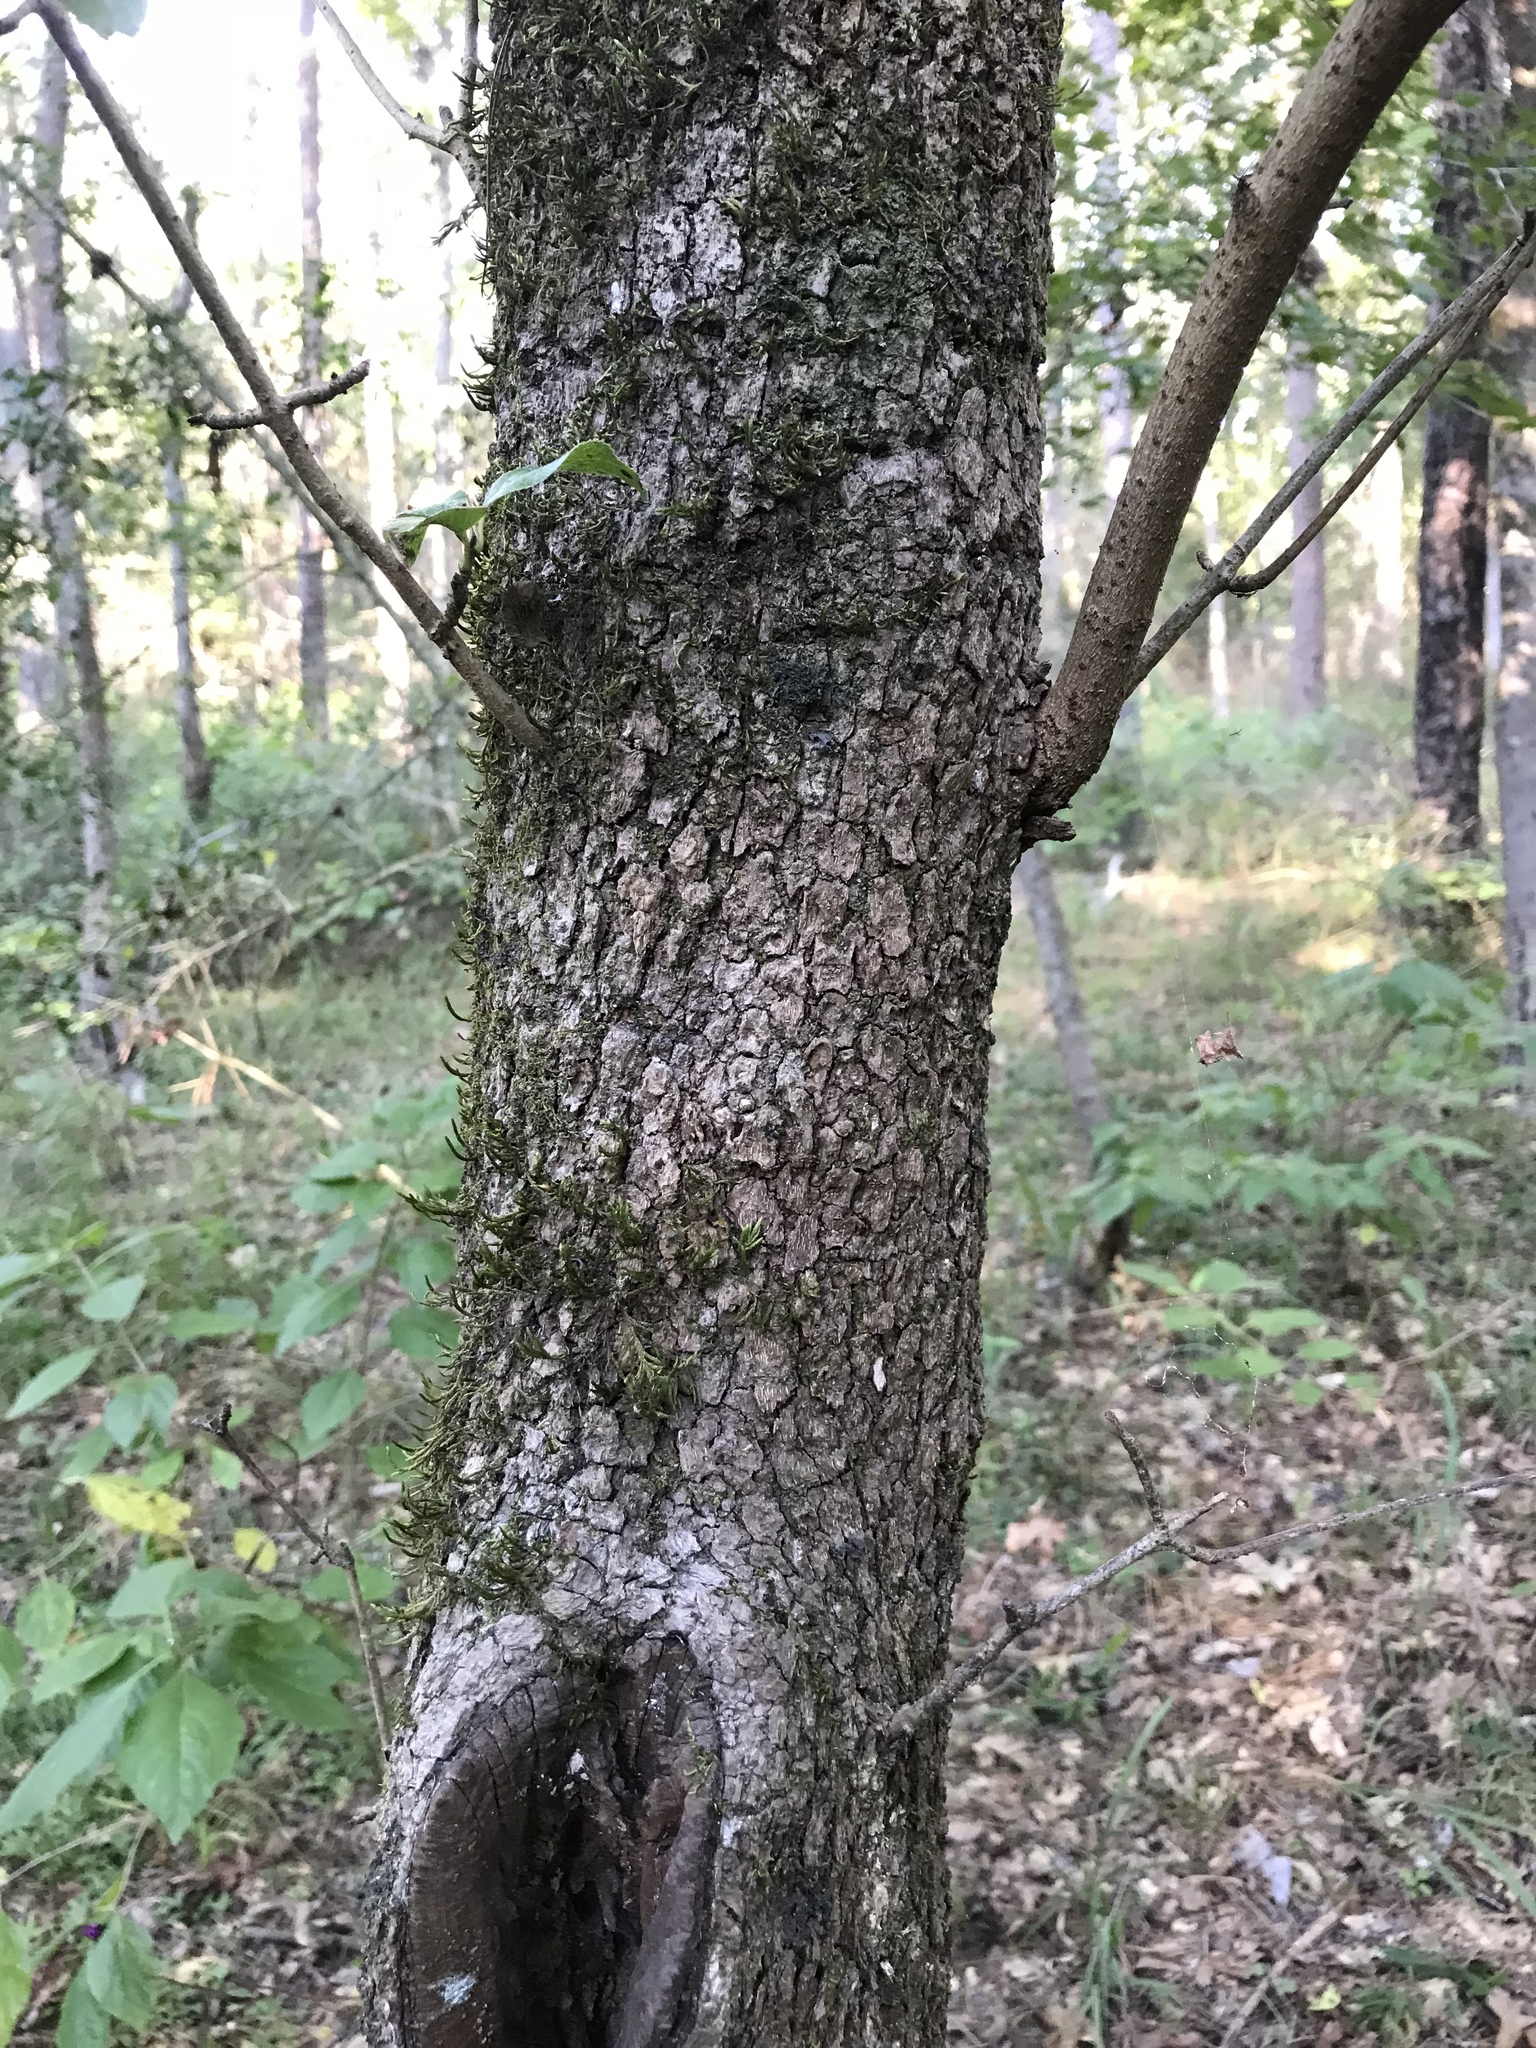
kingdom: Plantae
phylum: Tracheophyta
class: Magnoliopsida
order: Dipsacales
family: Viburnaceae
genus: Viburnum
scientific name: Viburnum rufidulum
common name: Blue haw
